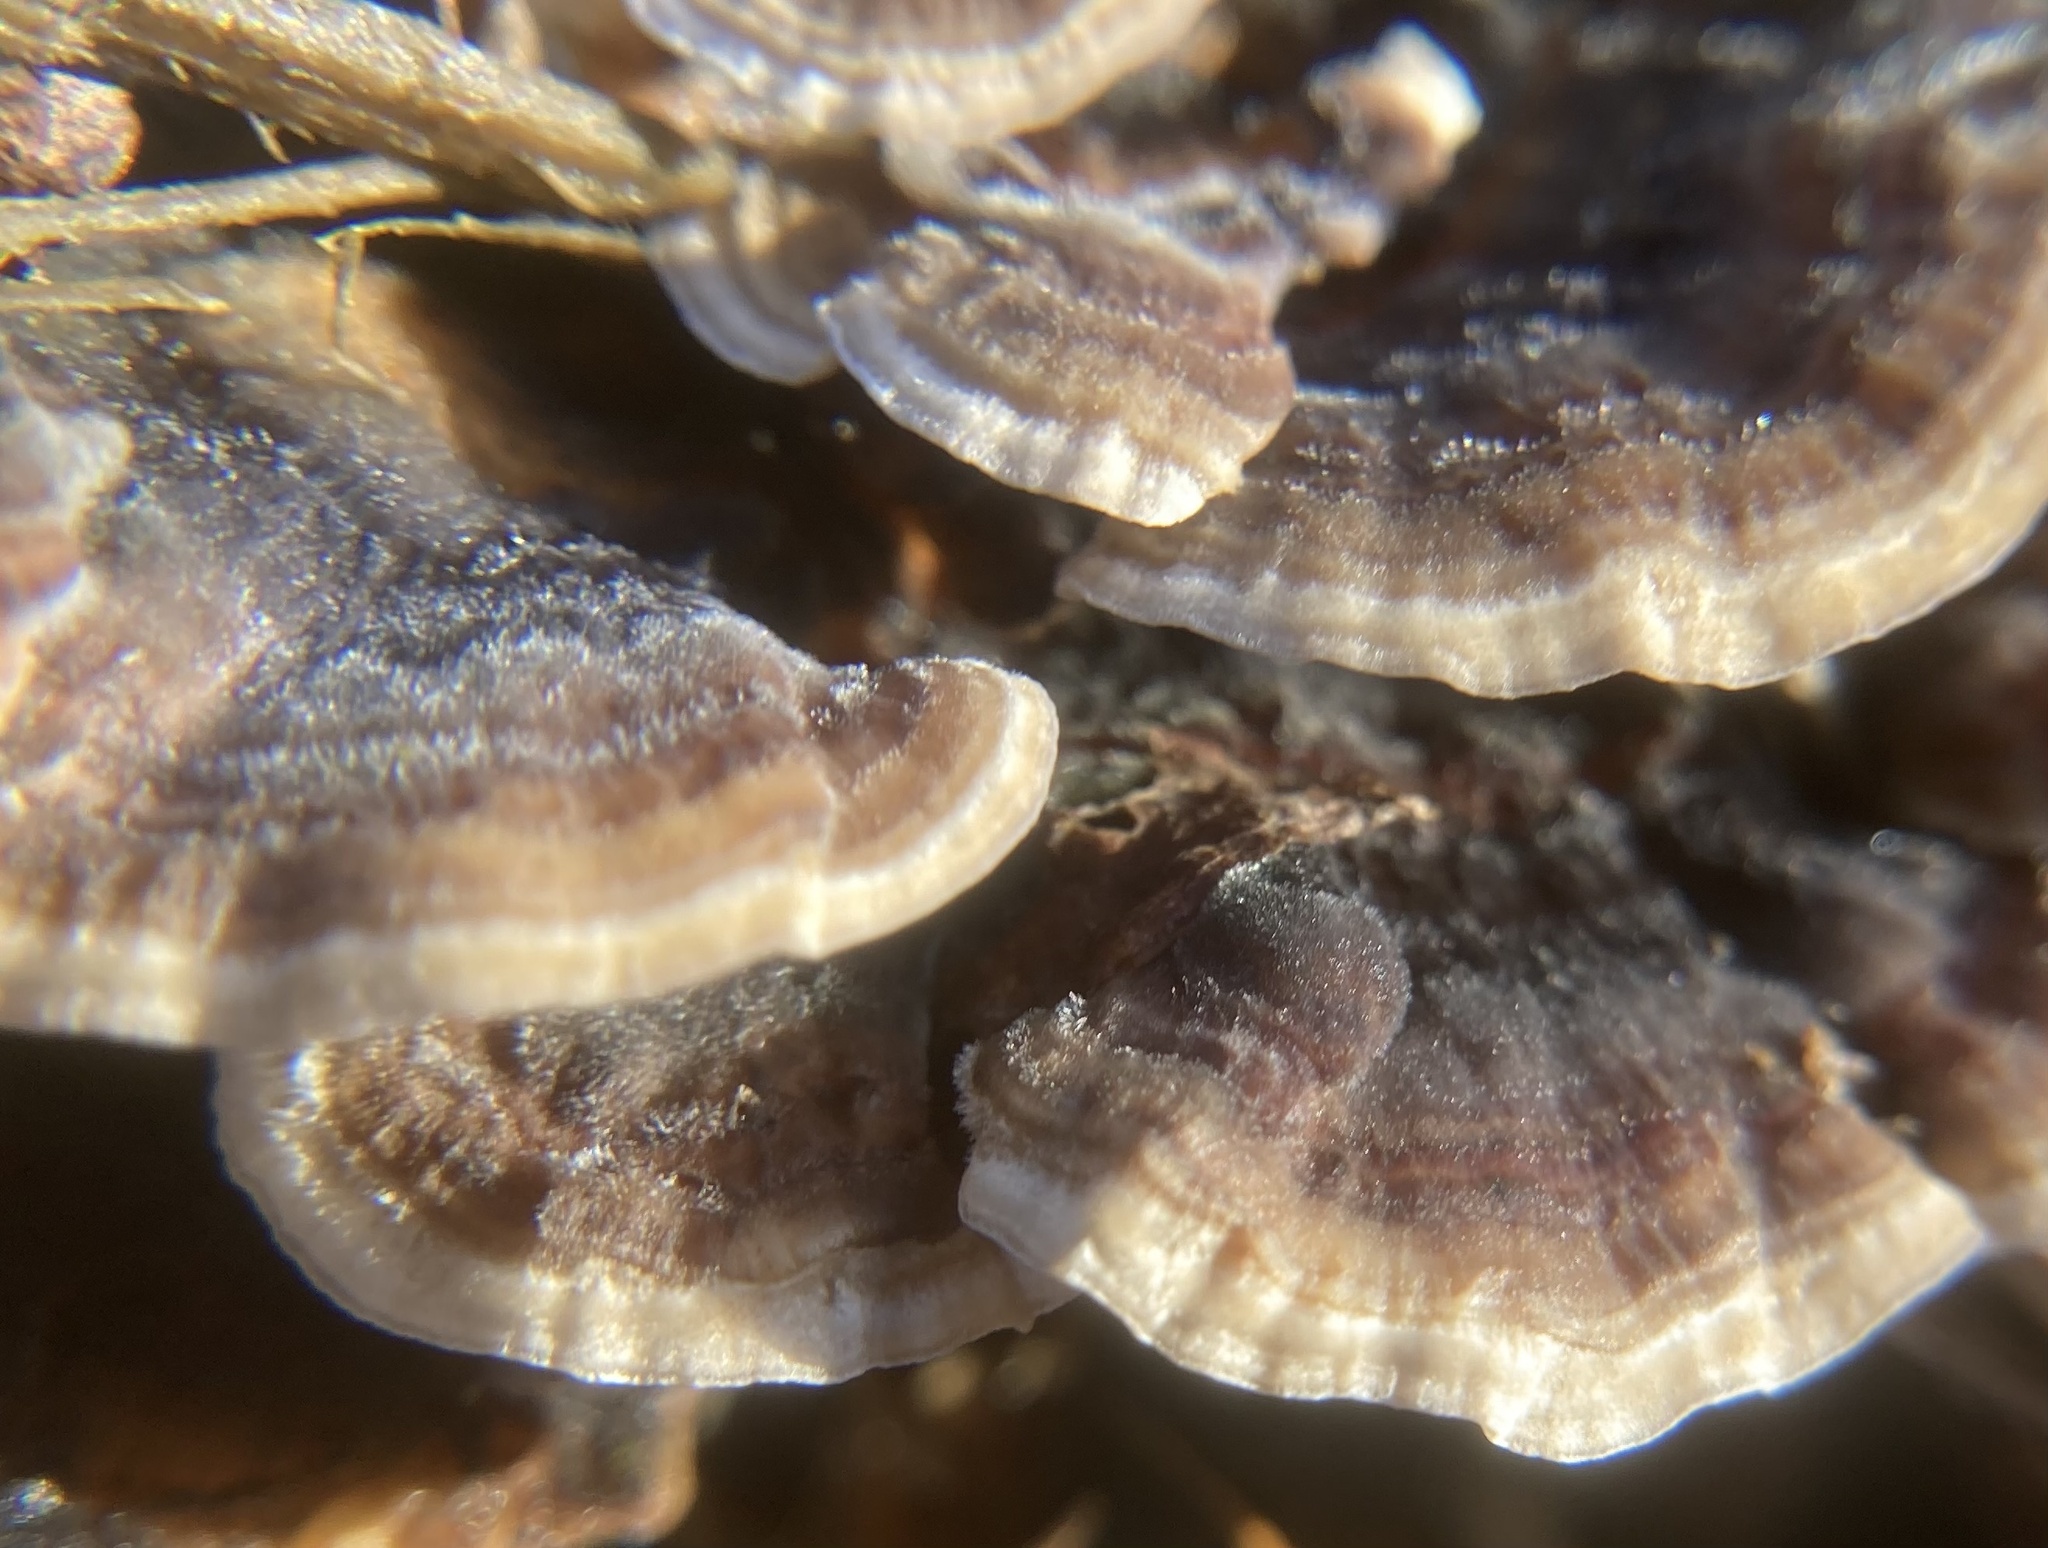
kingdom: Fungi
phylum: Basidiomycota
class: Agaricomycetes
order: Polyporales
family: Polyporaceae
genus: Trametes
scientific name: Trametes versicolor
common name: Turkeytail
